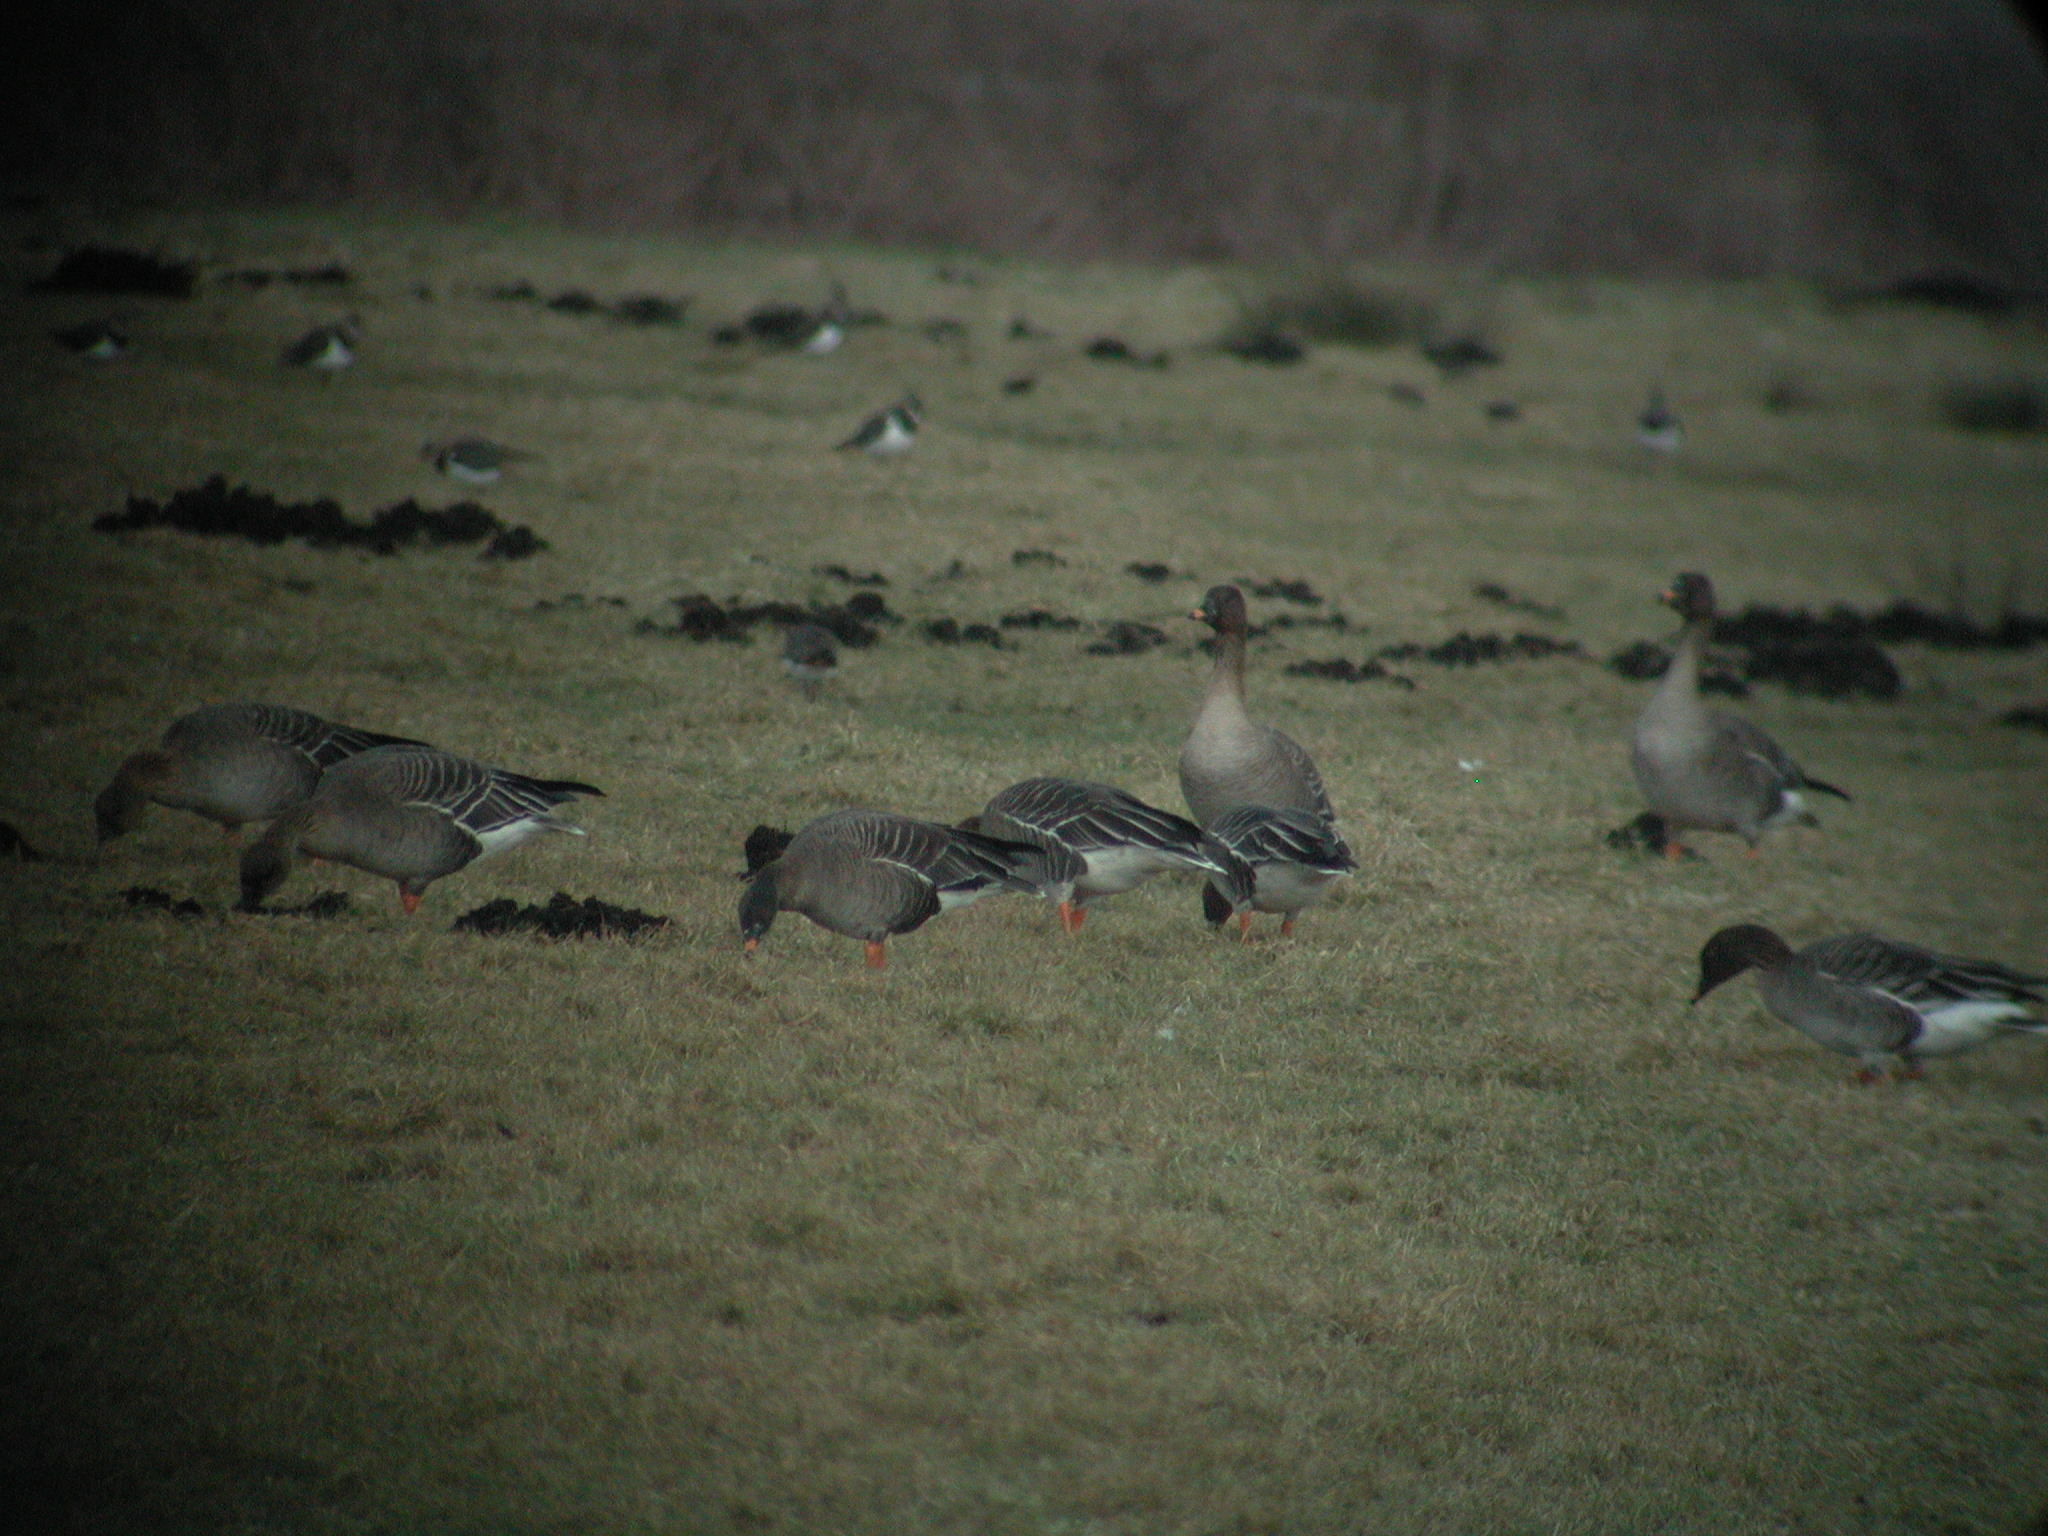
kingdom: Animalia
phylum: Chordata
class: Aves
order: Anseriformes
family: Anatidae
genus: Anser
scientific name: Anser serrirostris
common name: Tundra bean goose
